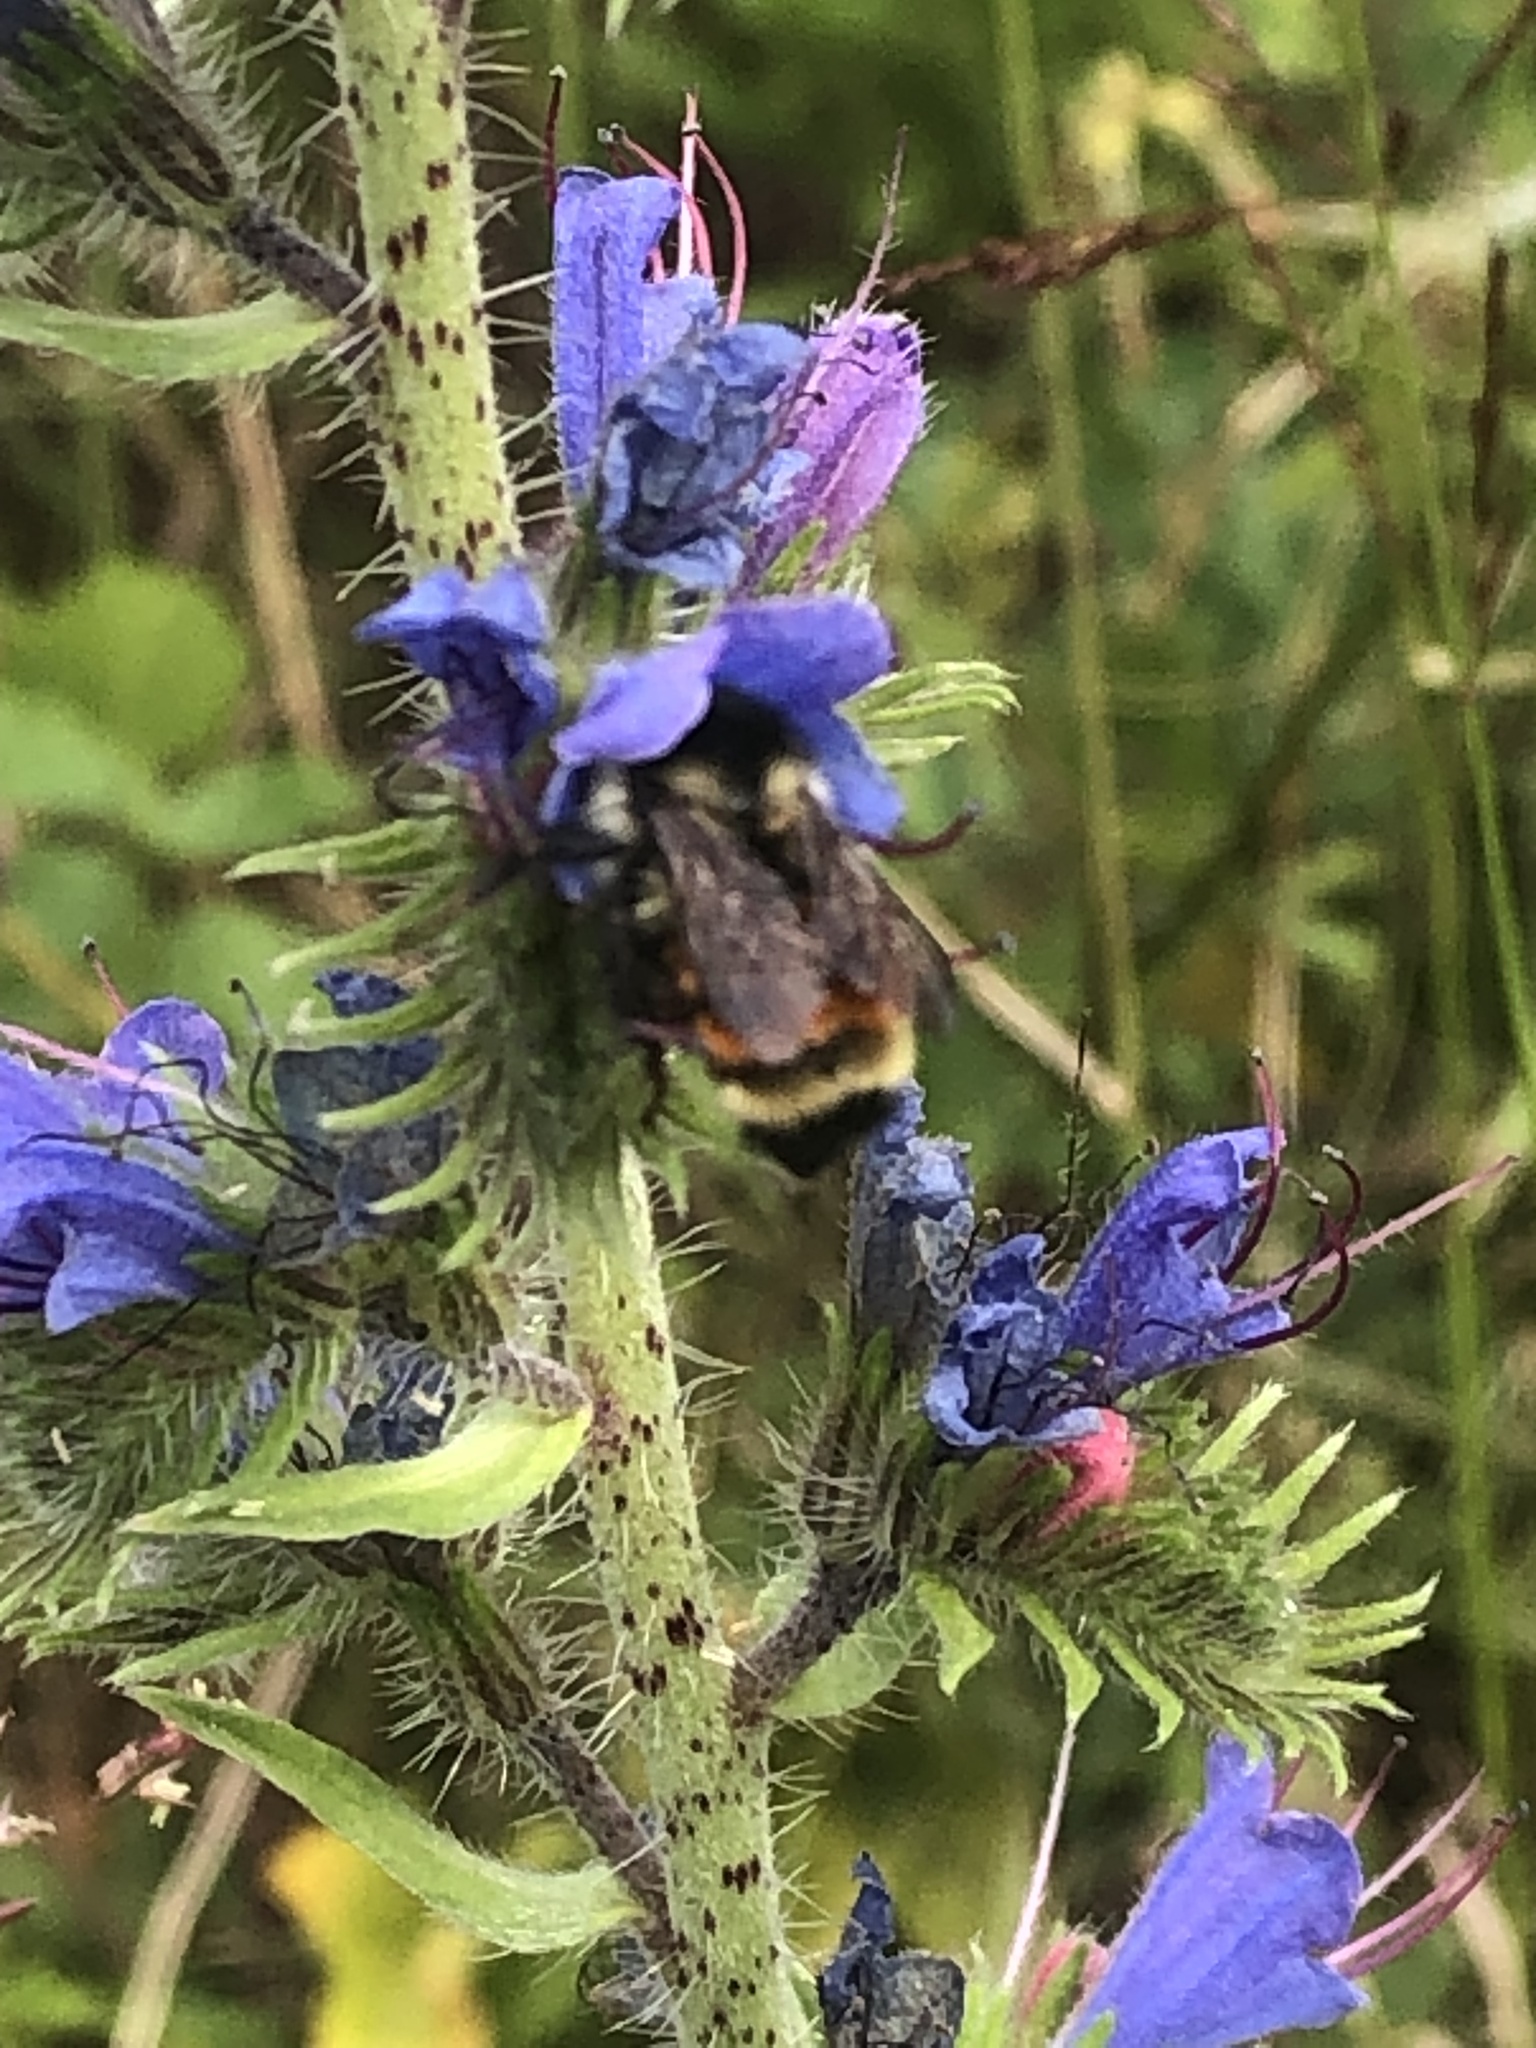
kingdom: Animalia
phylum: Arthropoda
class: Insecta
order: Hymenoptera
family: Apidae
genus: Bombus
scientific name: Bombus ternarius
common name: Tri-colored bumble bee
